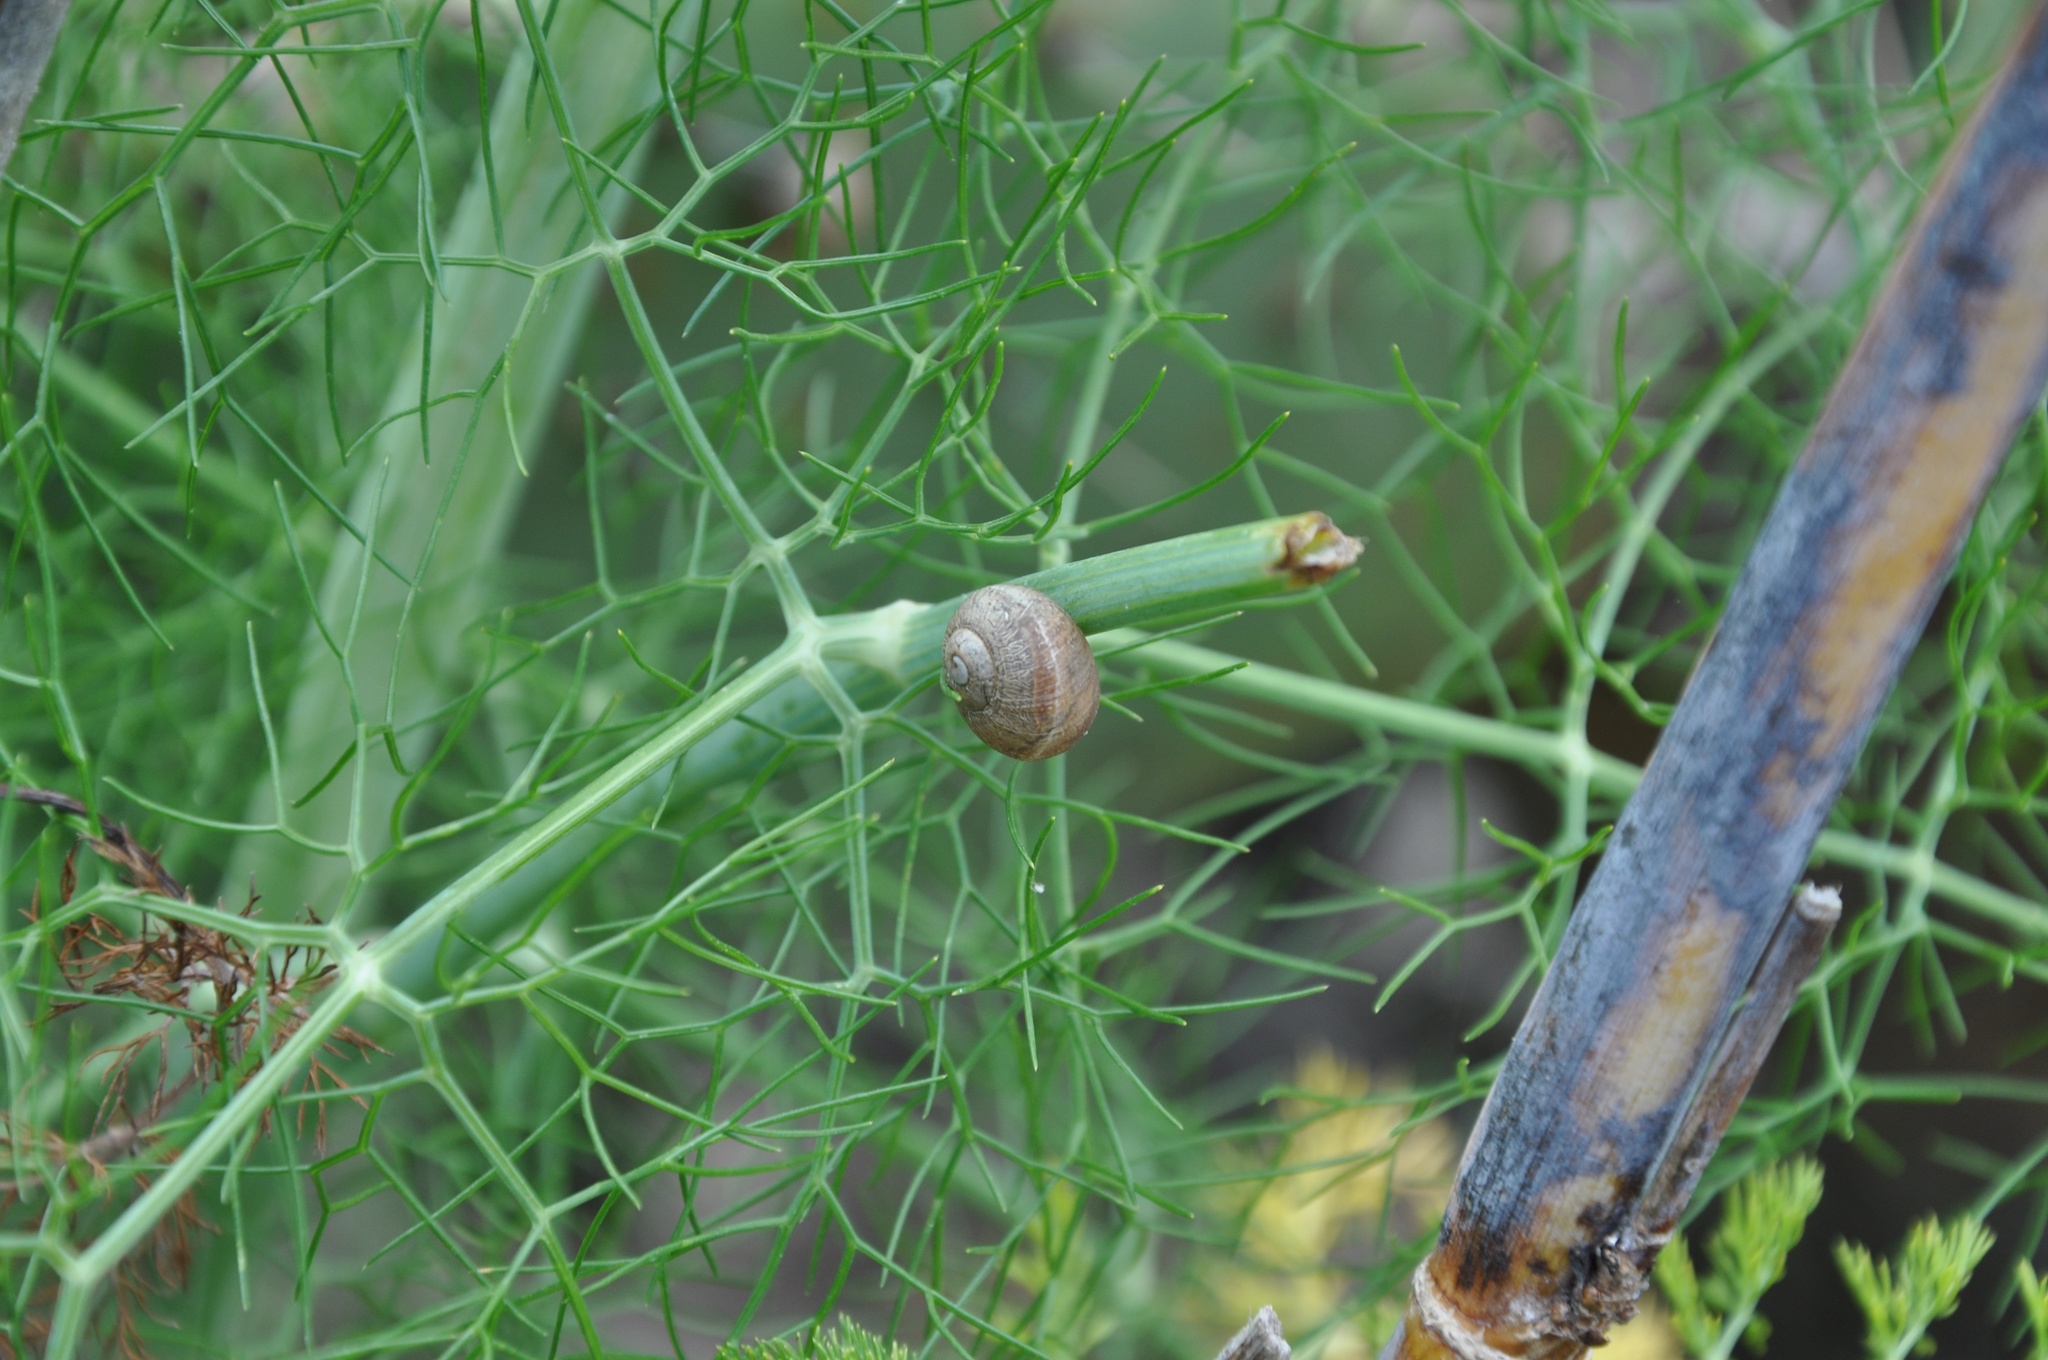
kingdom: Animalia
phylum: Mollusca
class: Gastropoda
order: Stylommatophora
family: Helicidae
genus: Cornu
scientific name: Cornu aspersum
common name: Brown garden snail
